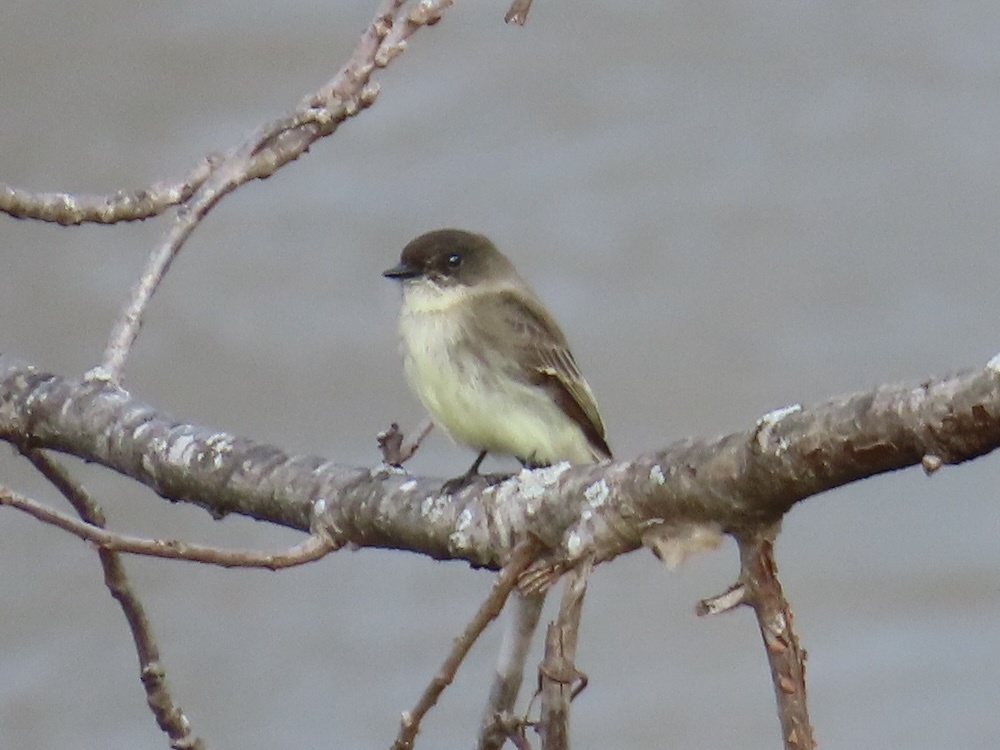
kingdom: Animalia
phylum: Chordata
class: Aves
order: Passeriformes
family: Tyrannidae
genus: Sayornis
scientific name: Sayornis phoebe
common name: Eastern phoebe
